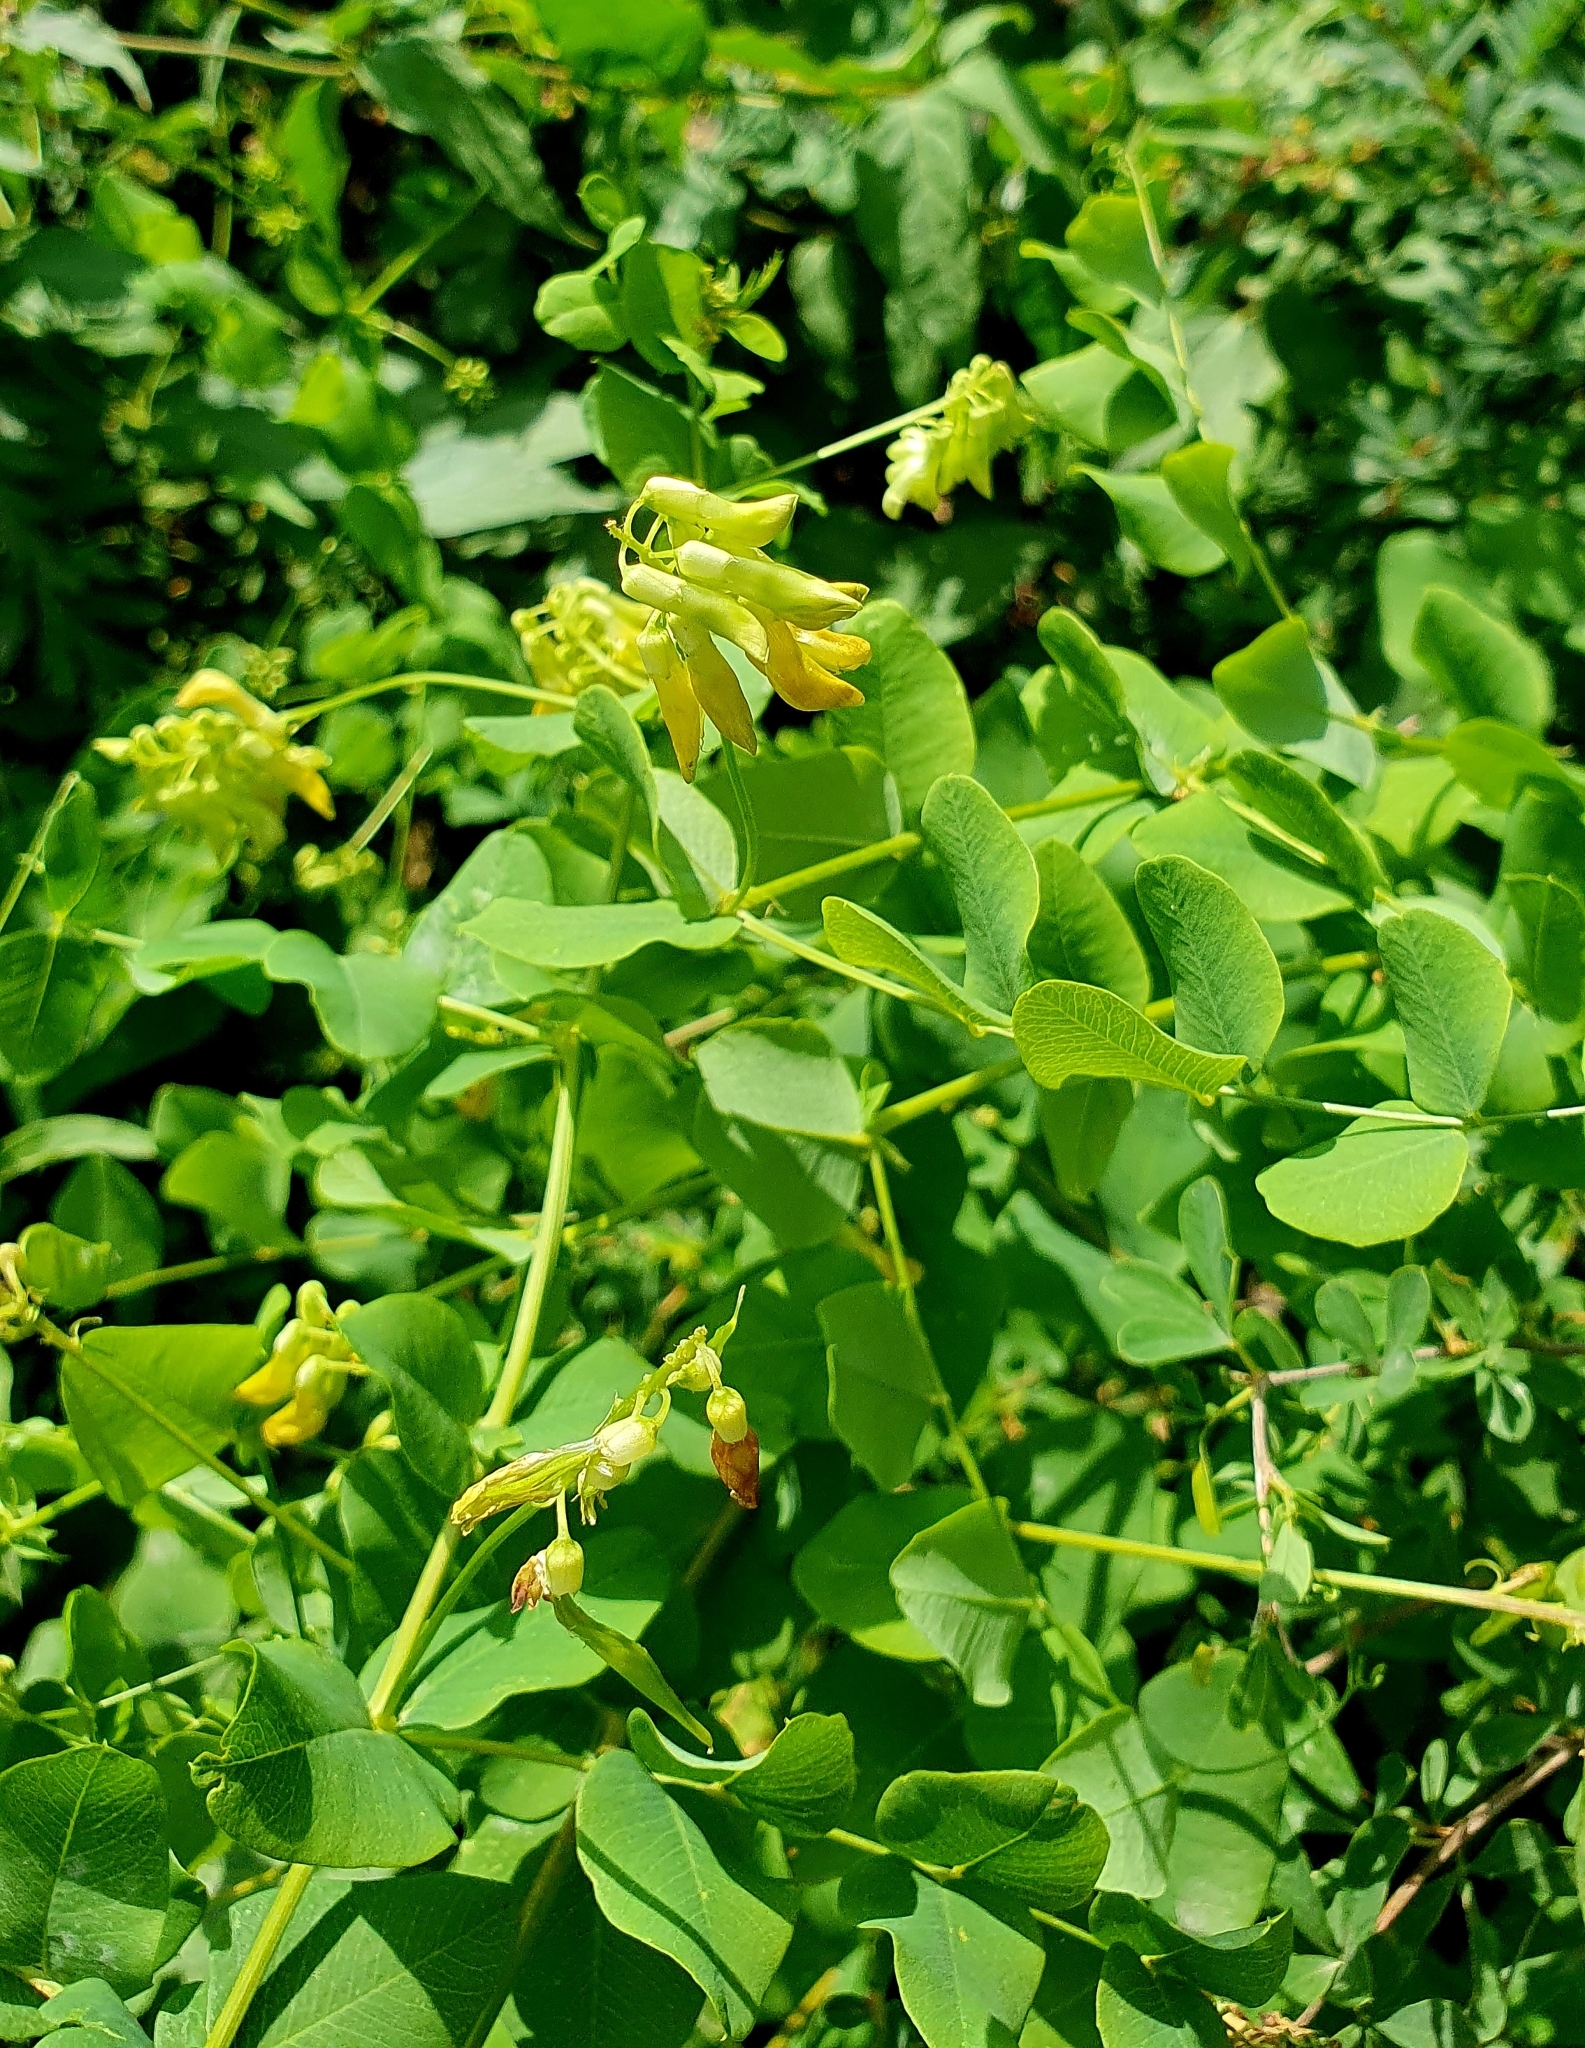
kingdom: Plantae
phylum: Tracheophyta
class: Magnoliopsida
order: Fabales
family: Fabaceae
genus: Vicia
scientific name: Vicia pisiformis
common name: Pale-flower vetch
